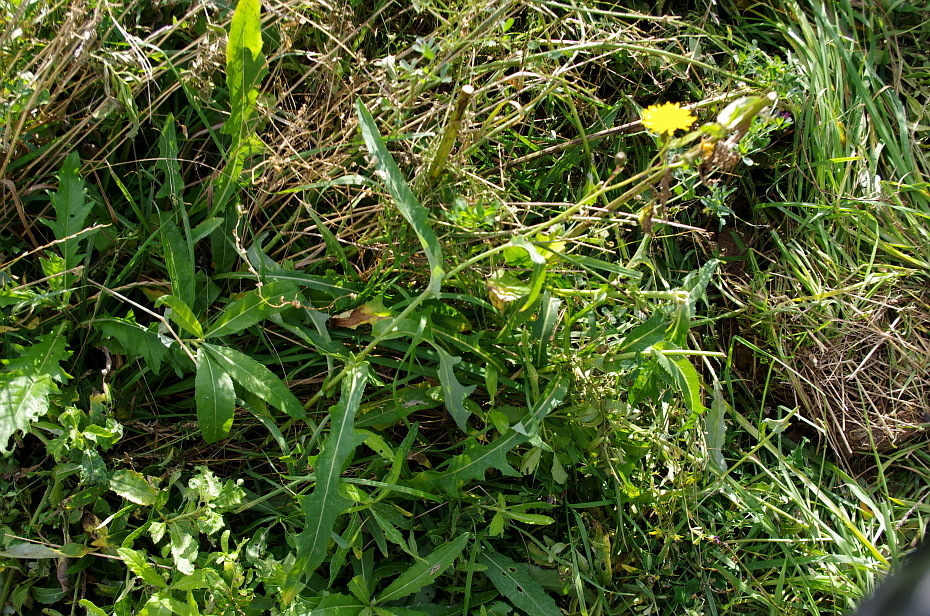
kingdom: Plantae
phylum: Tracheophyta
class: Magnoliopsida
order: Asterales
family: Asteraceae
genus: Sonchus
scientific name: Sonchus arvensis
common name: Perennial sow-thistle
